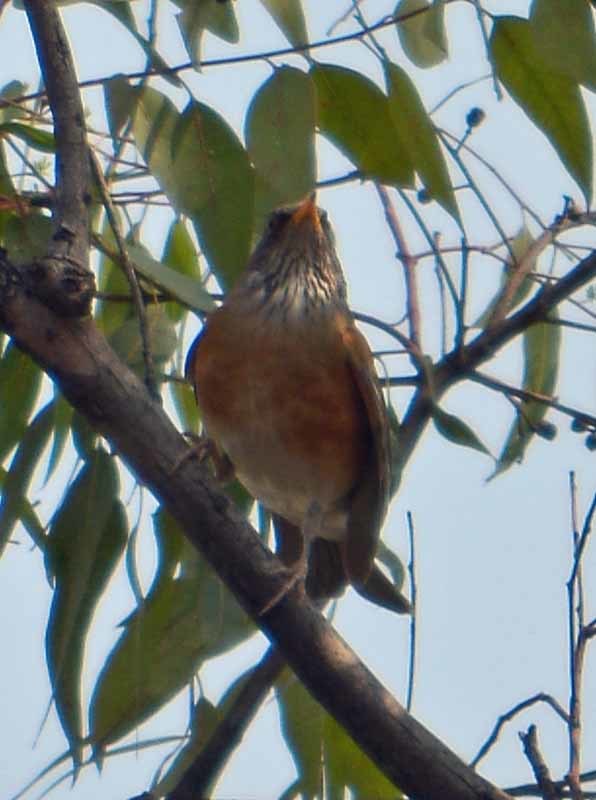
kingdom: Animalia
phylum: Chordata
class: Aves
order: Passeriformes
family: Turdidae
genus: Turdus
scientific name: Turdus rufopalliatus
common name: Rufous-backed robin
